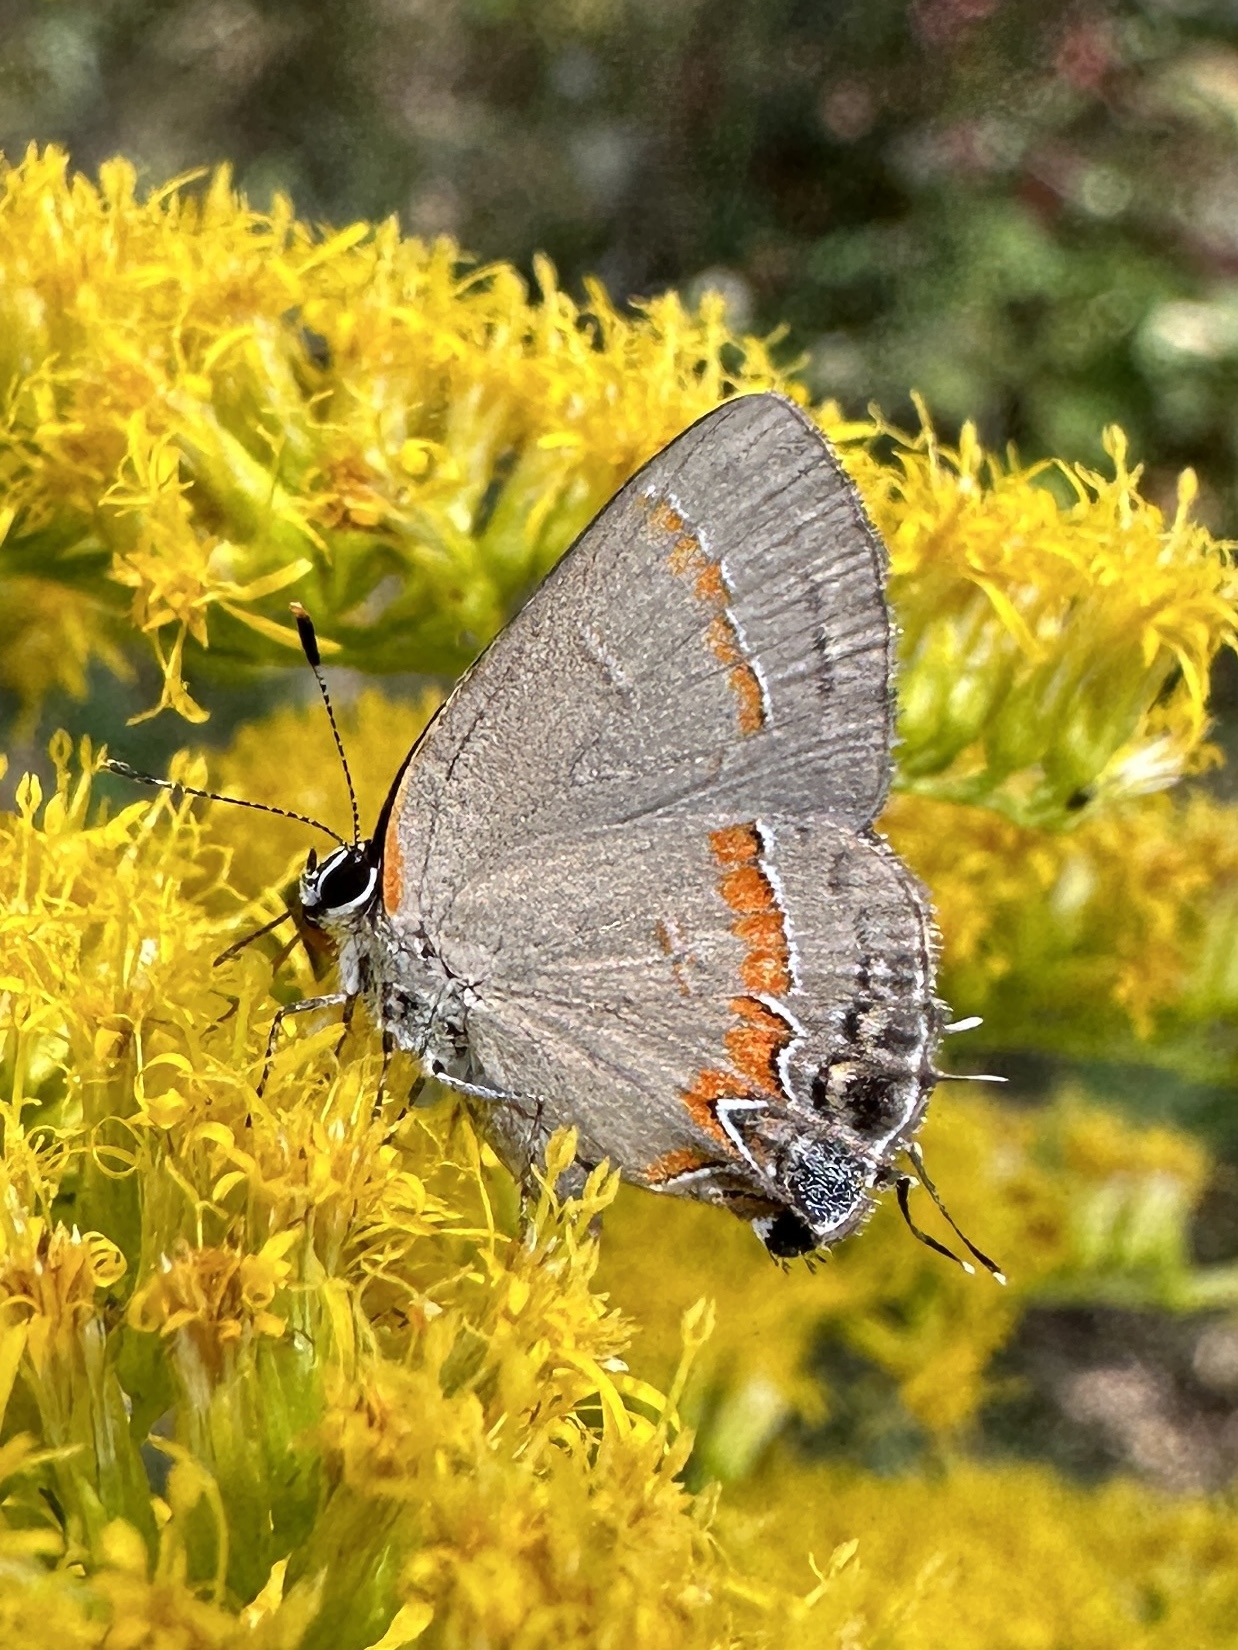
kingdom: Animalia
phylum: Arthropoda
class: Insecta
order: Lepidoptera
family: Lycaenidae
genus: Calycopis
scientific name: Calycopis cecrops
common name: Red-banded hairstreak
